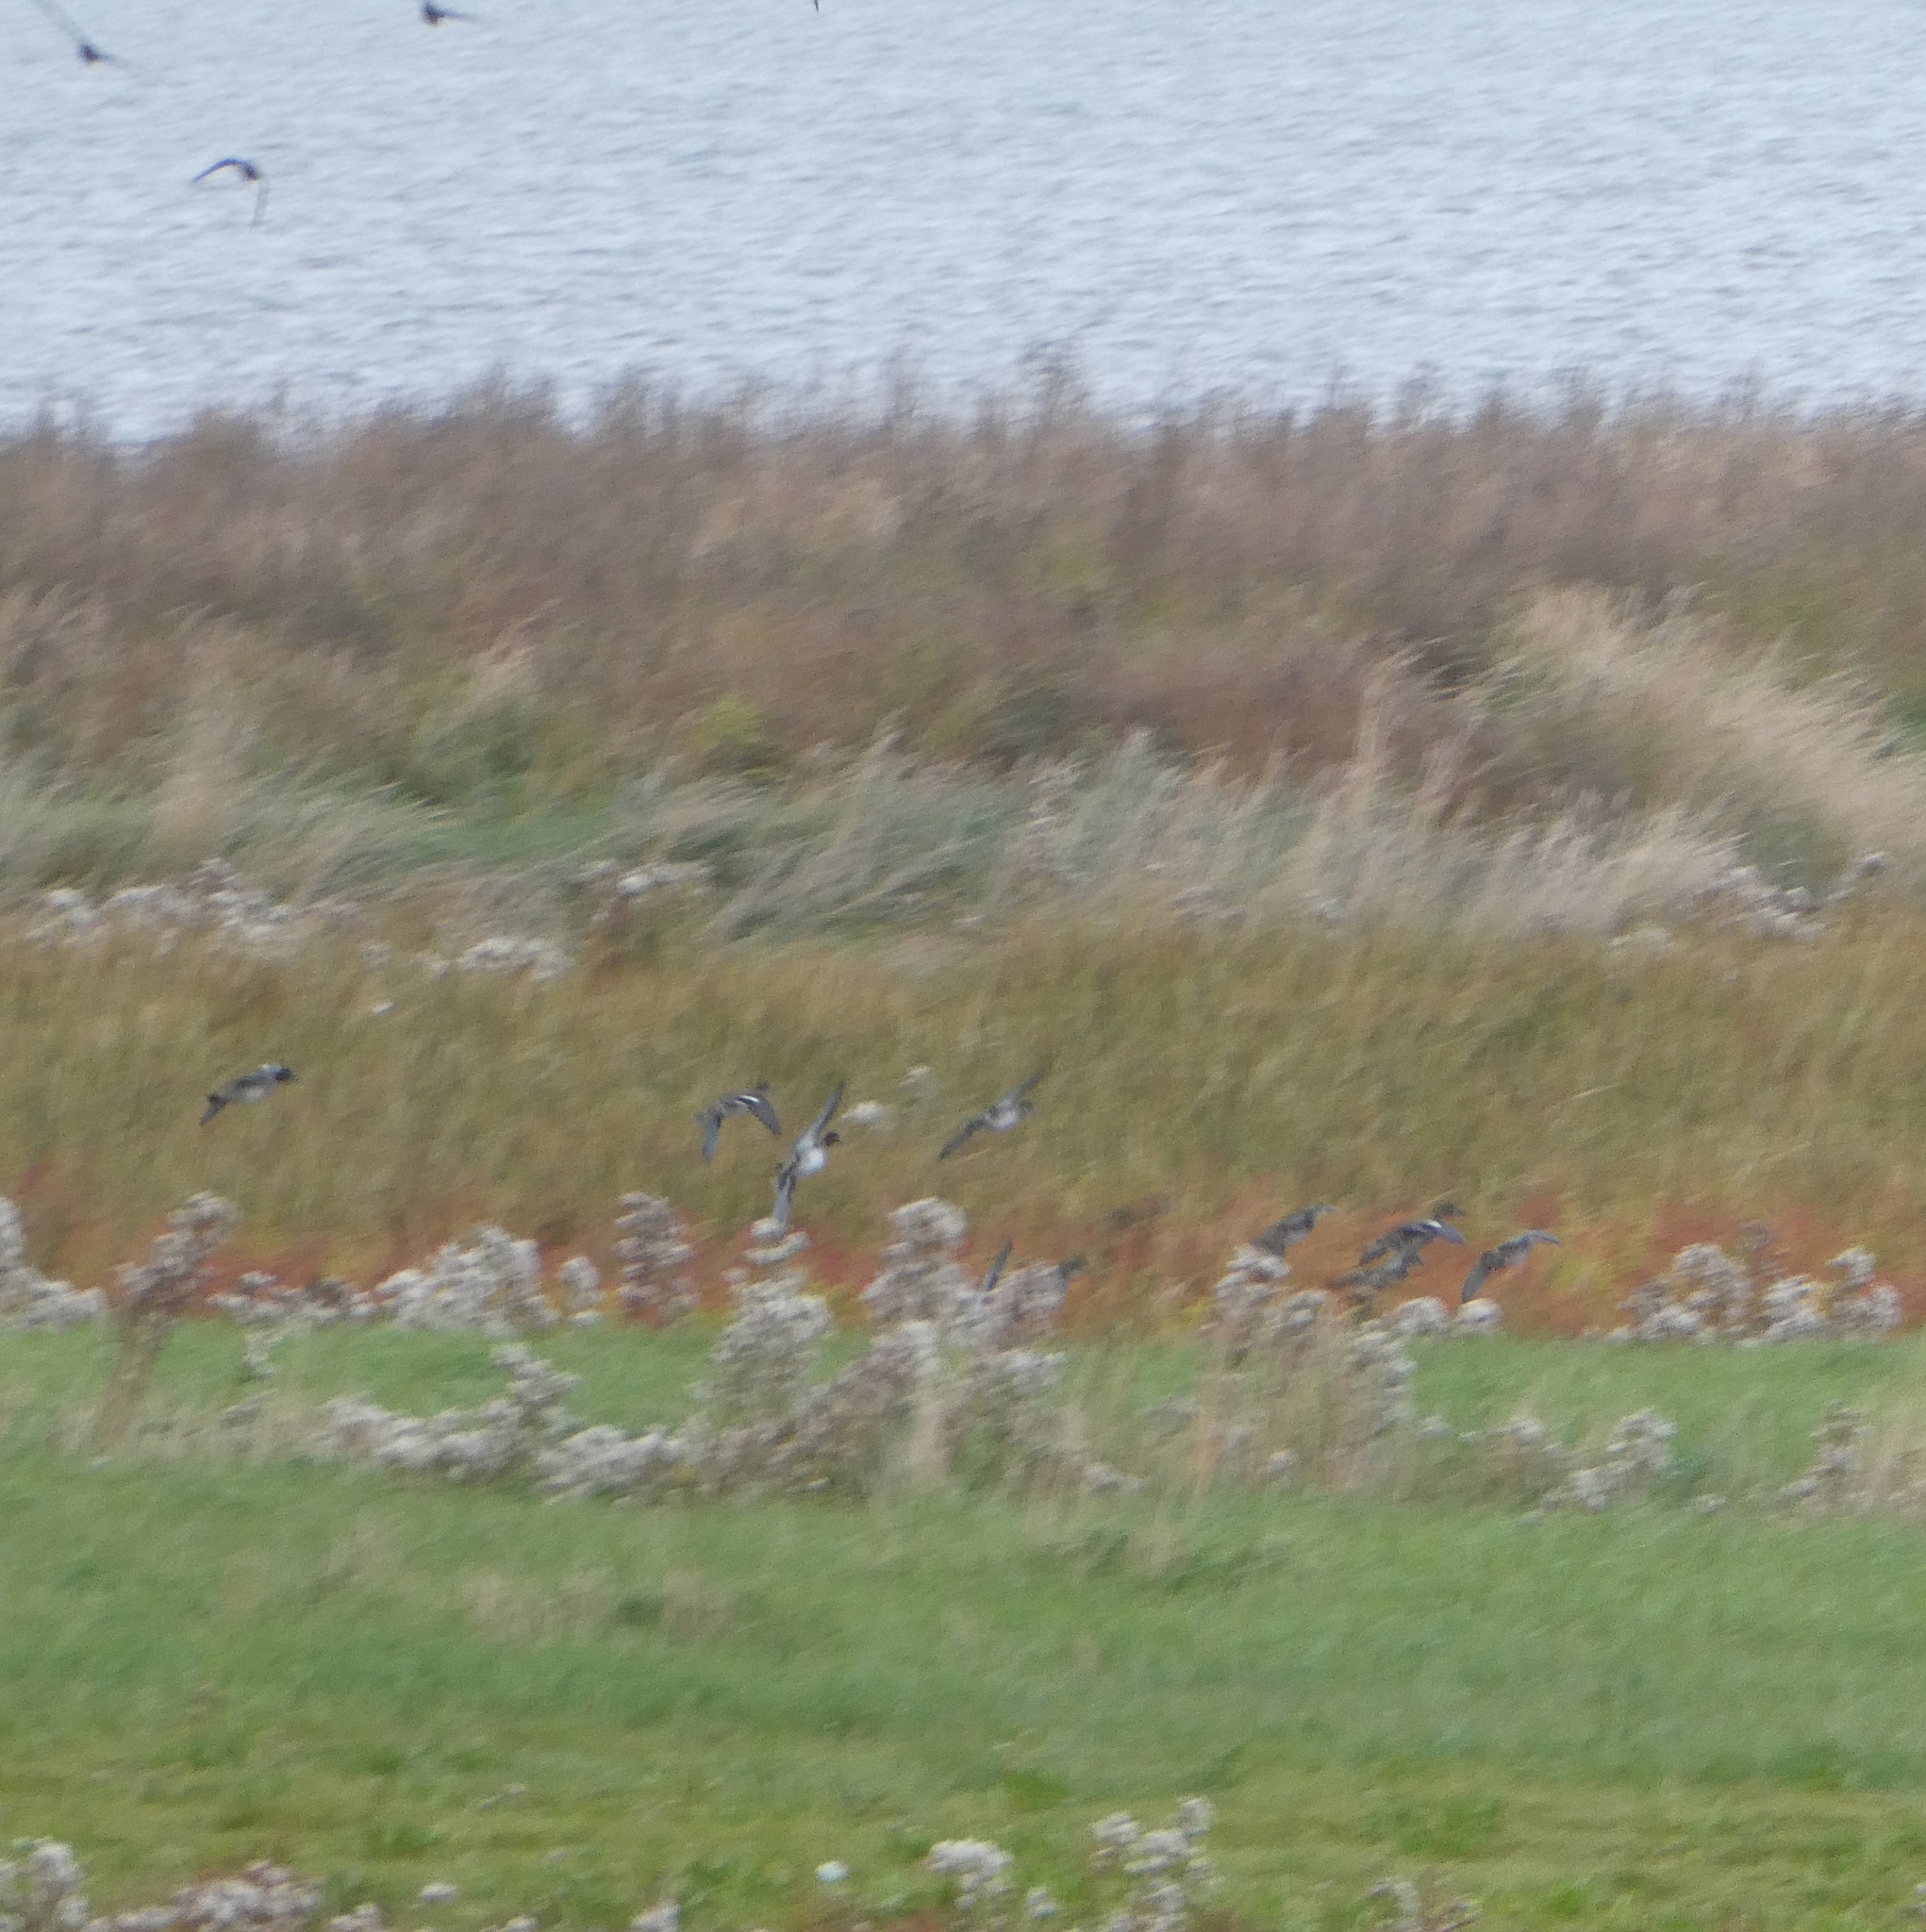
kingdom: Animalia
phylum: Chordata
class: Aves
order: Anseriformes
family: Anatidae
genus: Anas
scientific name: Anas crecca
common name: Eurasian teal
